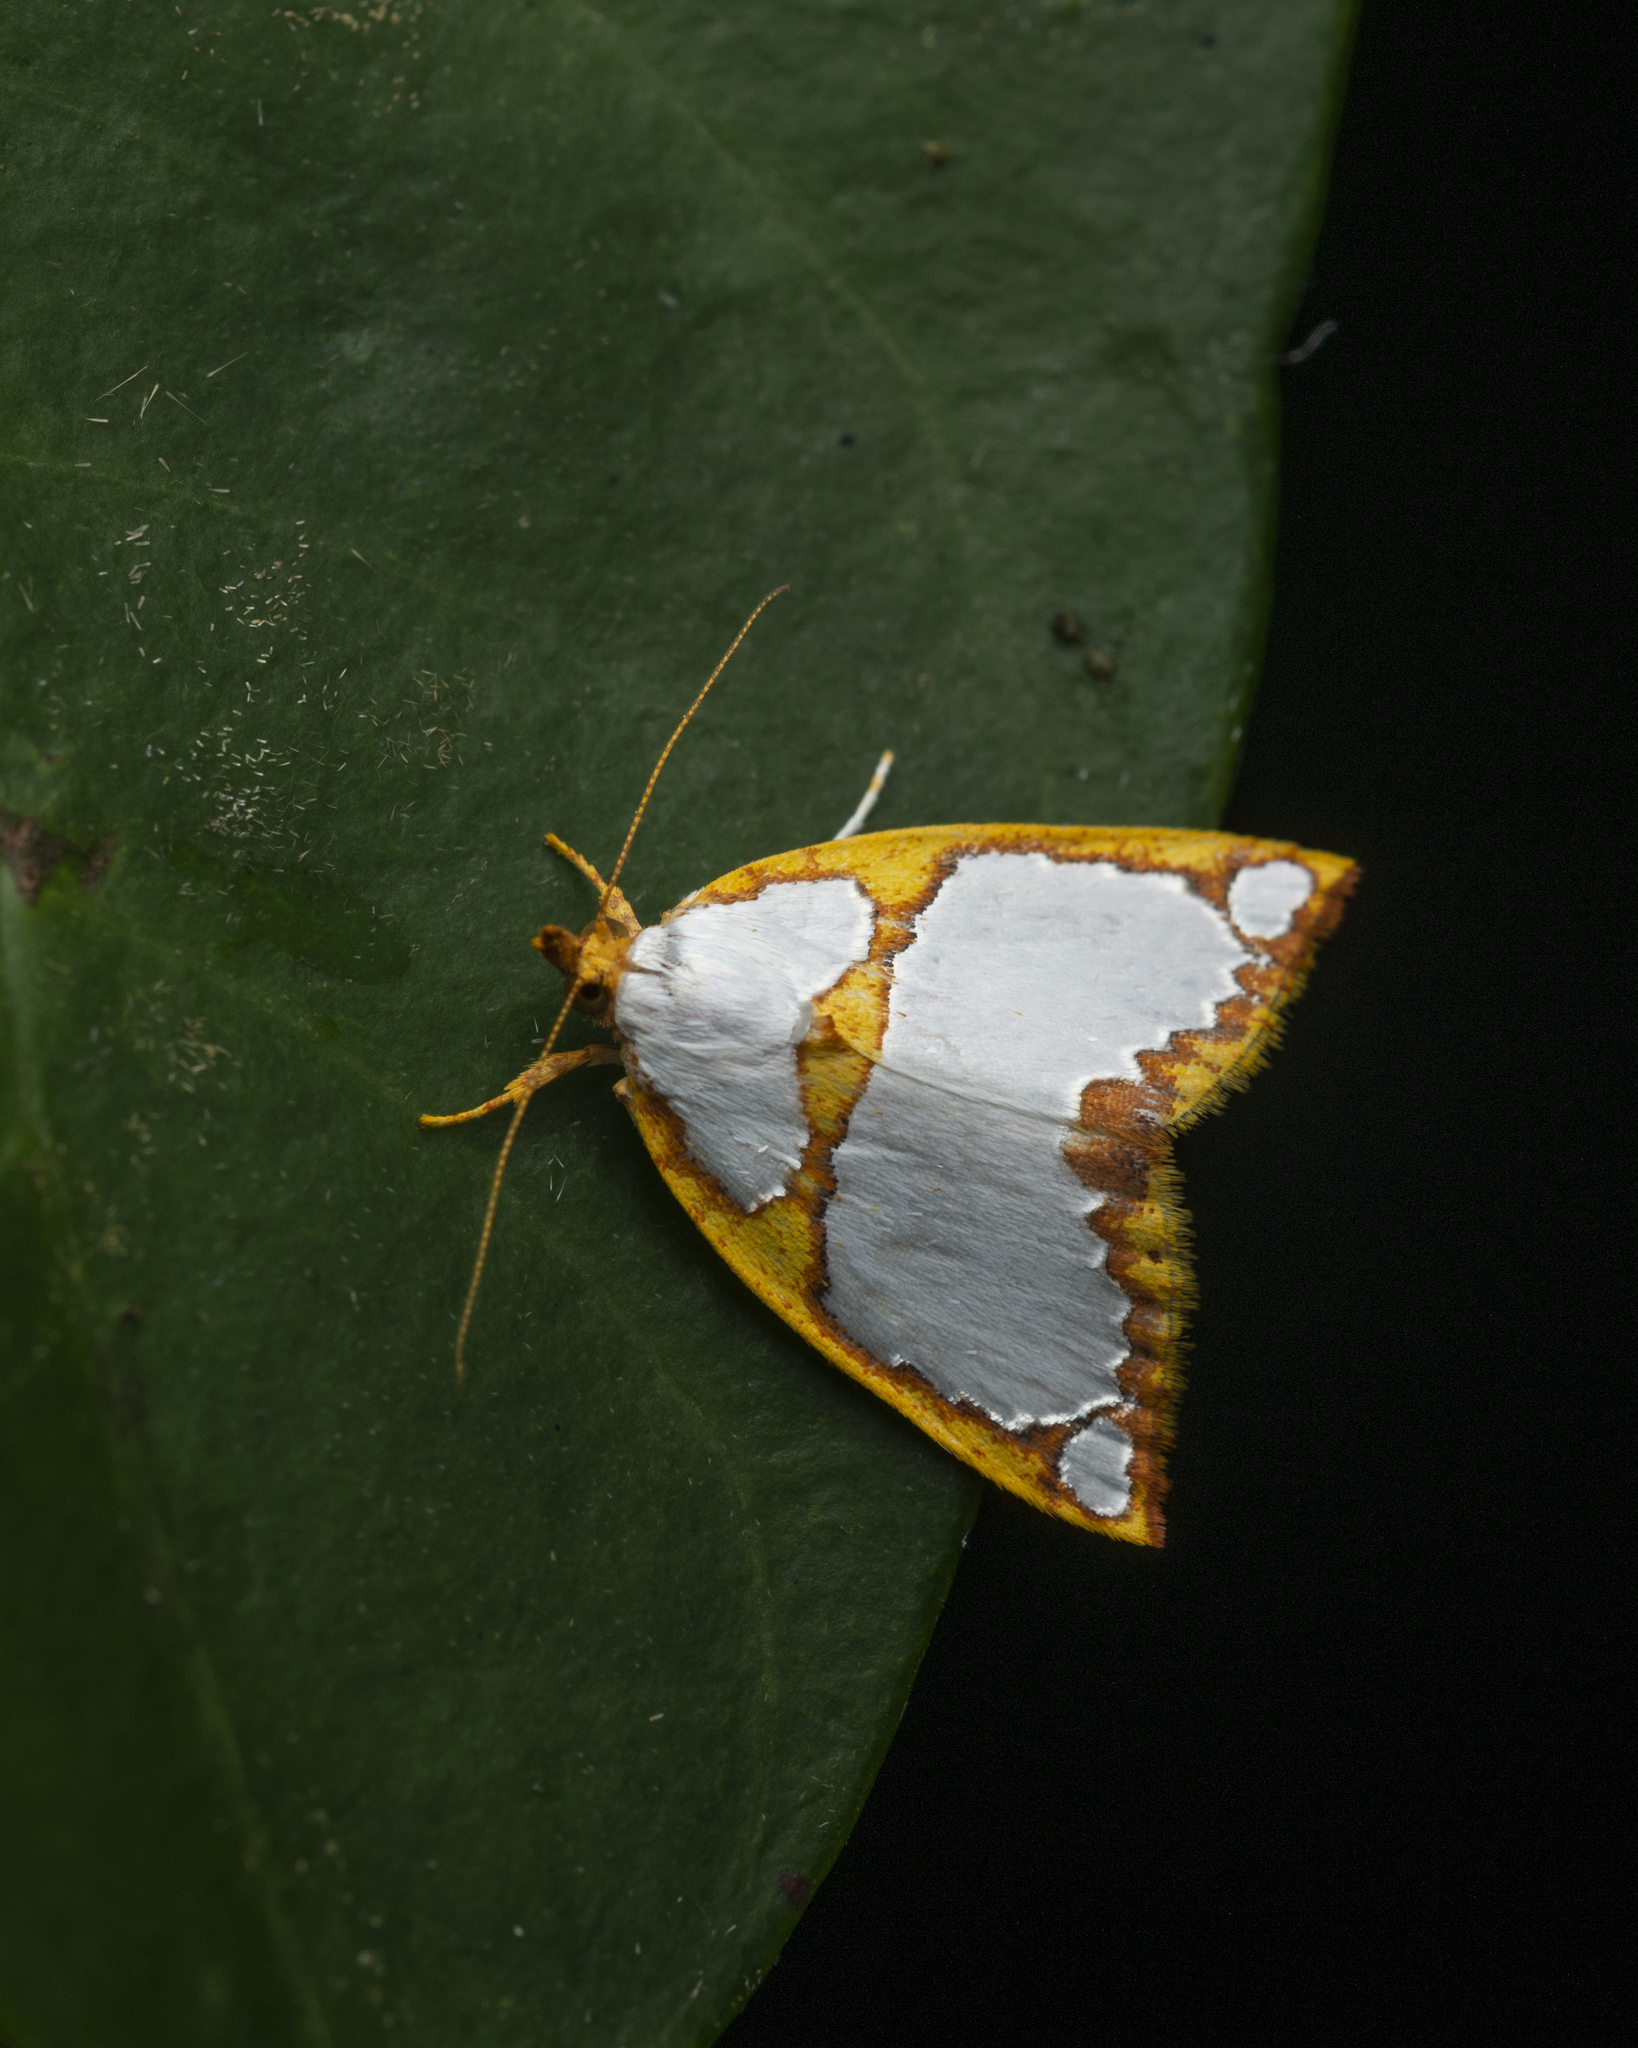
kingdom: Animalia
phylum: Arthropoda
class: Insecta
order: Lepidoptera
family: Nolidae
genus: Titulcia
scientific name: Titulcia confictella
